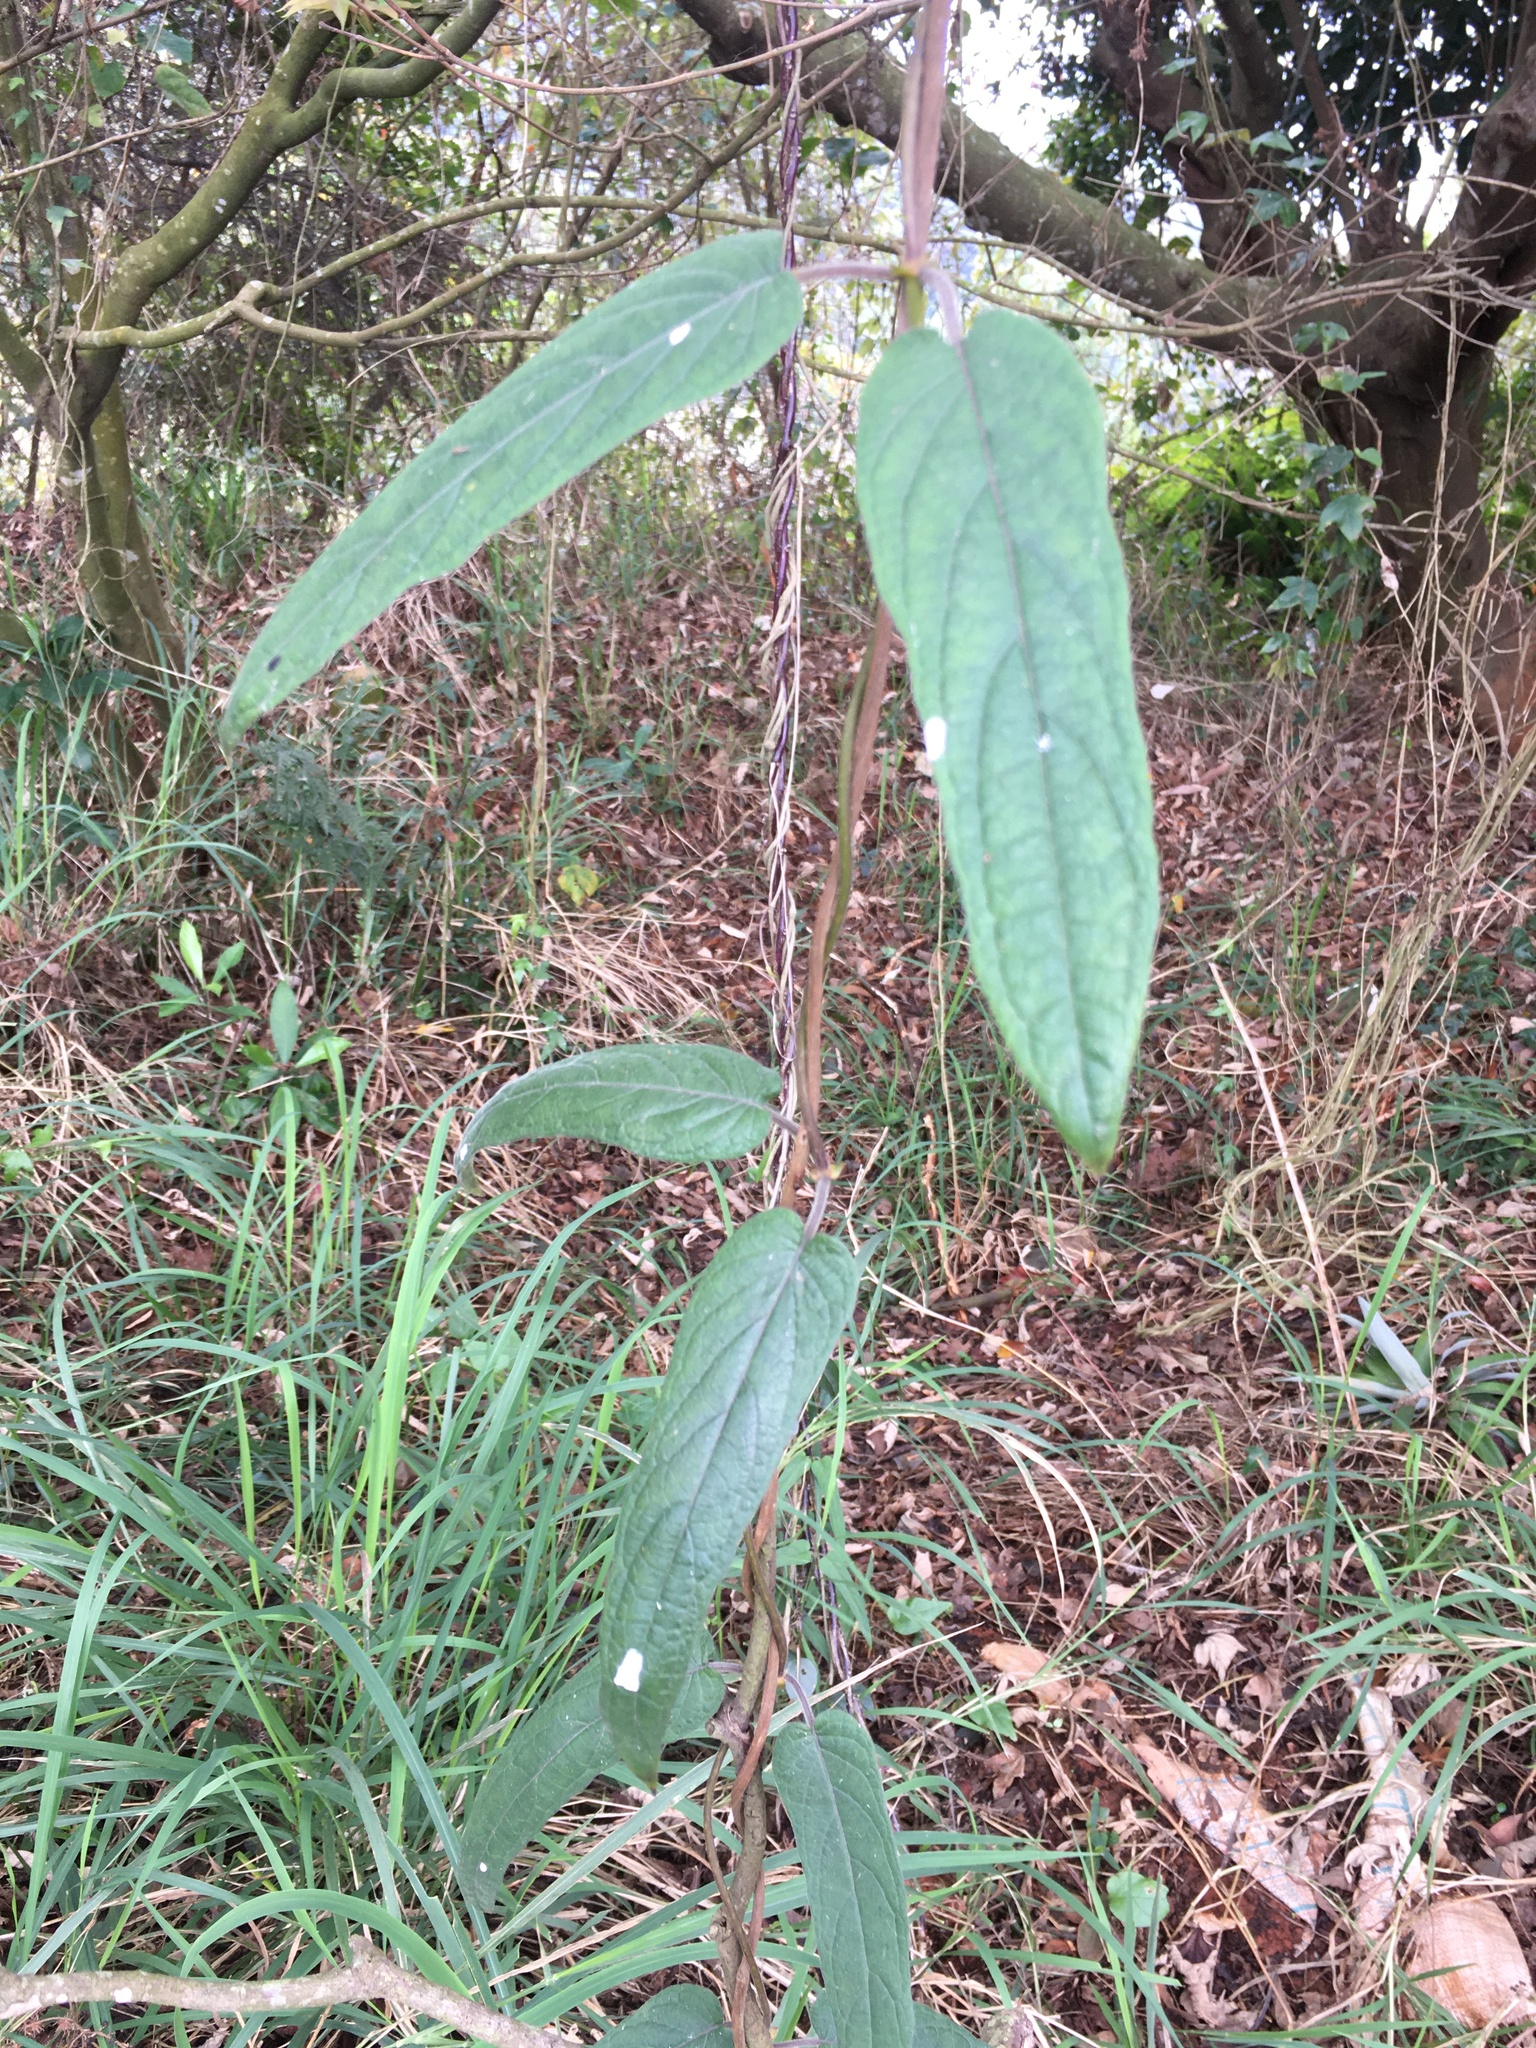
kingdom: Plantae
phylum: Tracheophyta
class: Magnoliopsida
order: Gentianales
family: Rubiaceae
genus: Paederia
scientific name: Paederia cavaleriei
